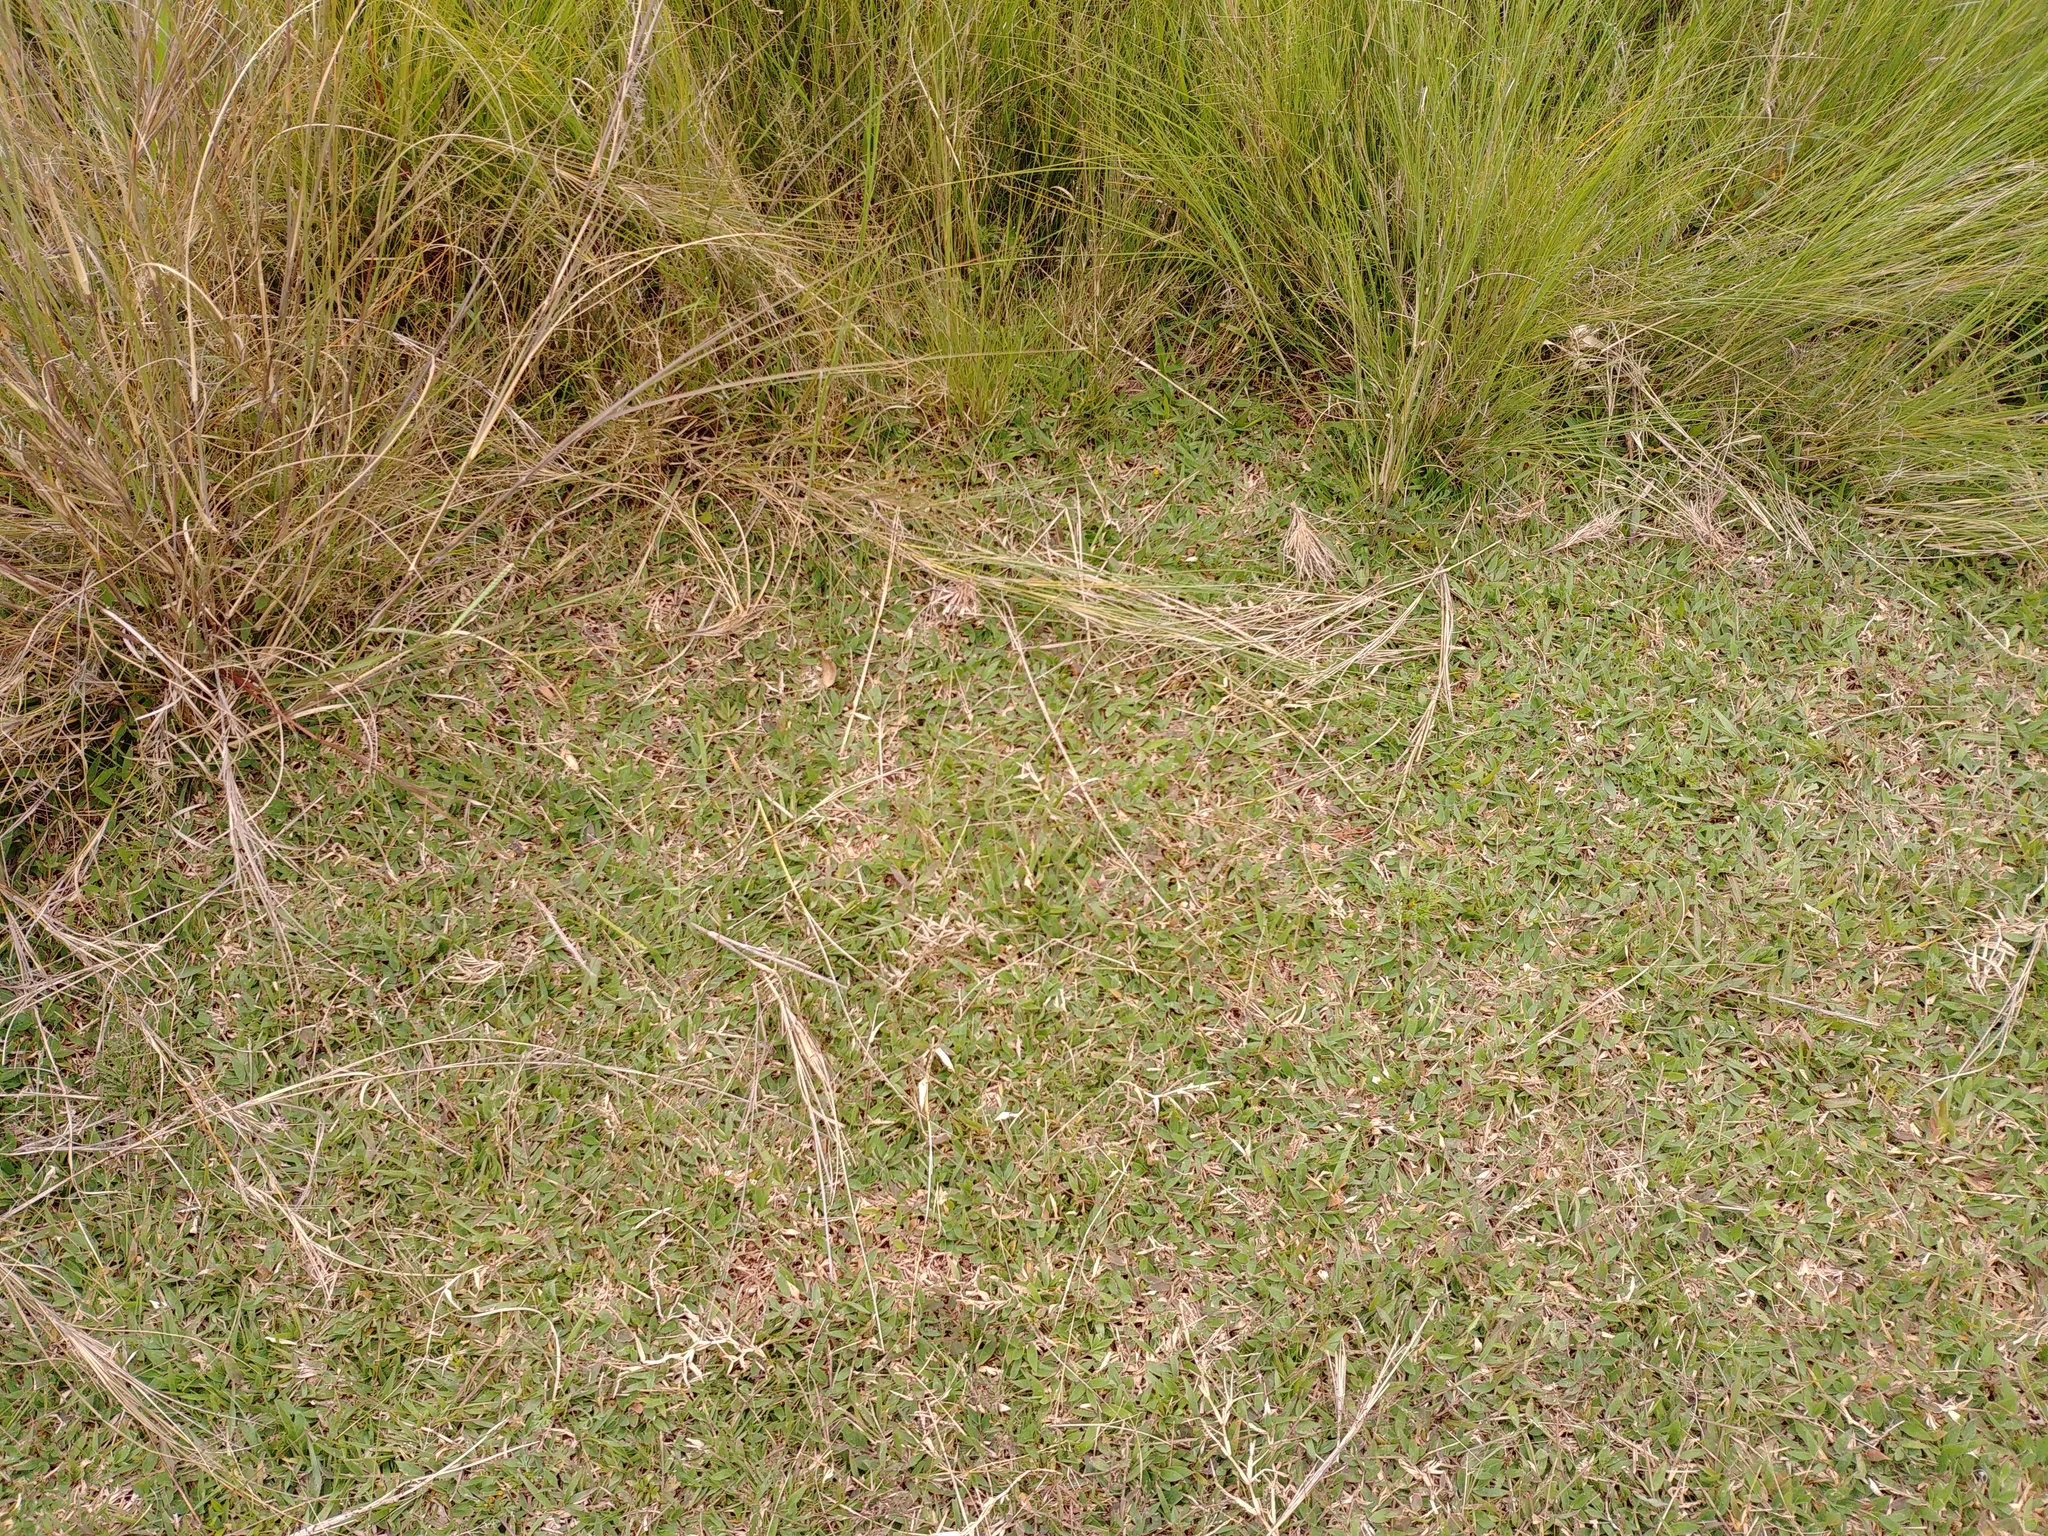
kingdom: Plantae
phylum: Tracheophyta
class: Liliopsida
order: Poales
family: Poaceae
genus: Urochloa
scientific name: Urochloa Brachiaria umbellata
